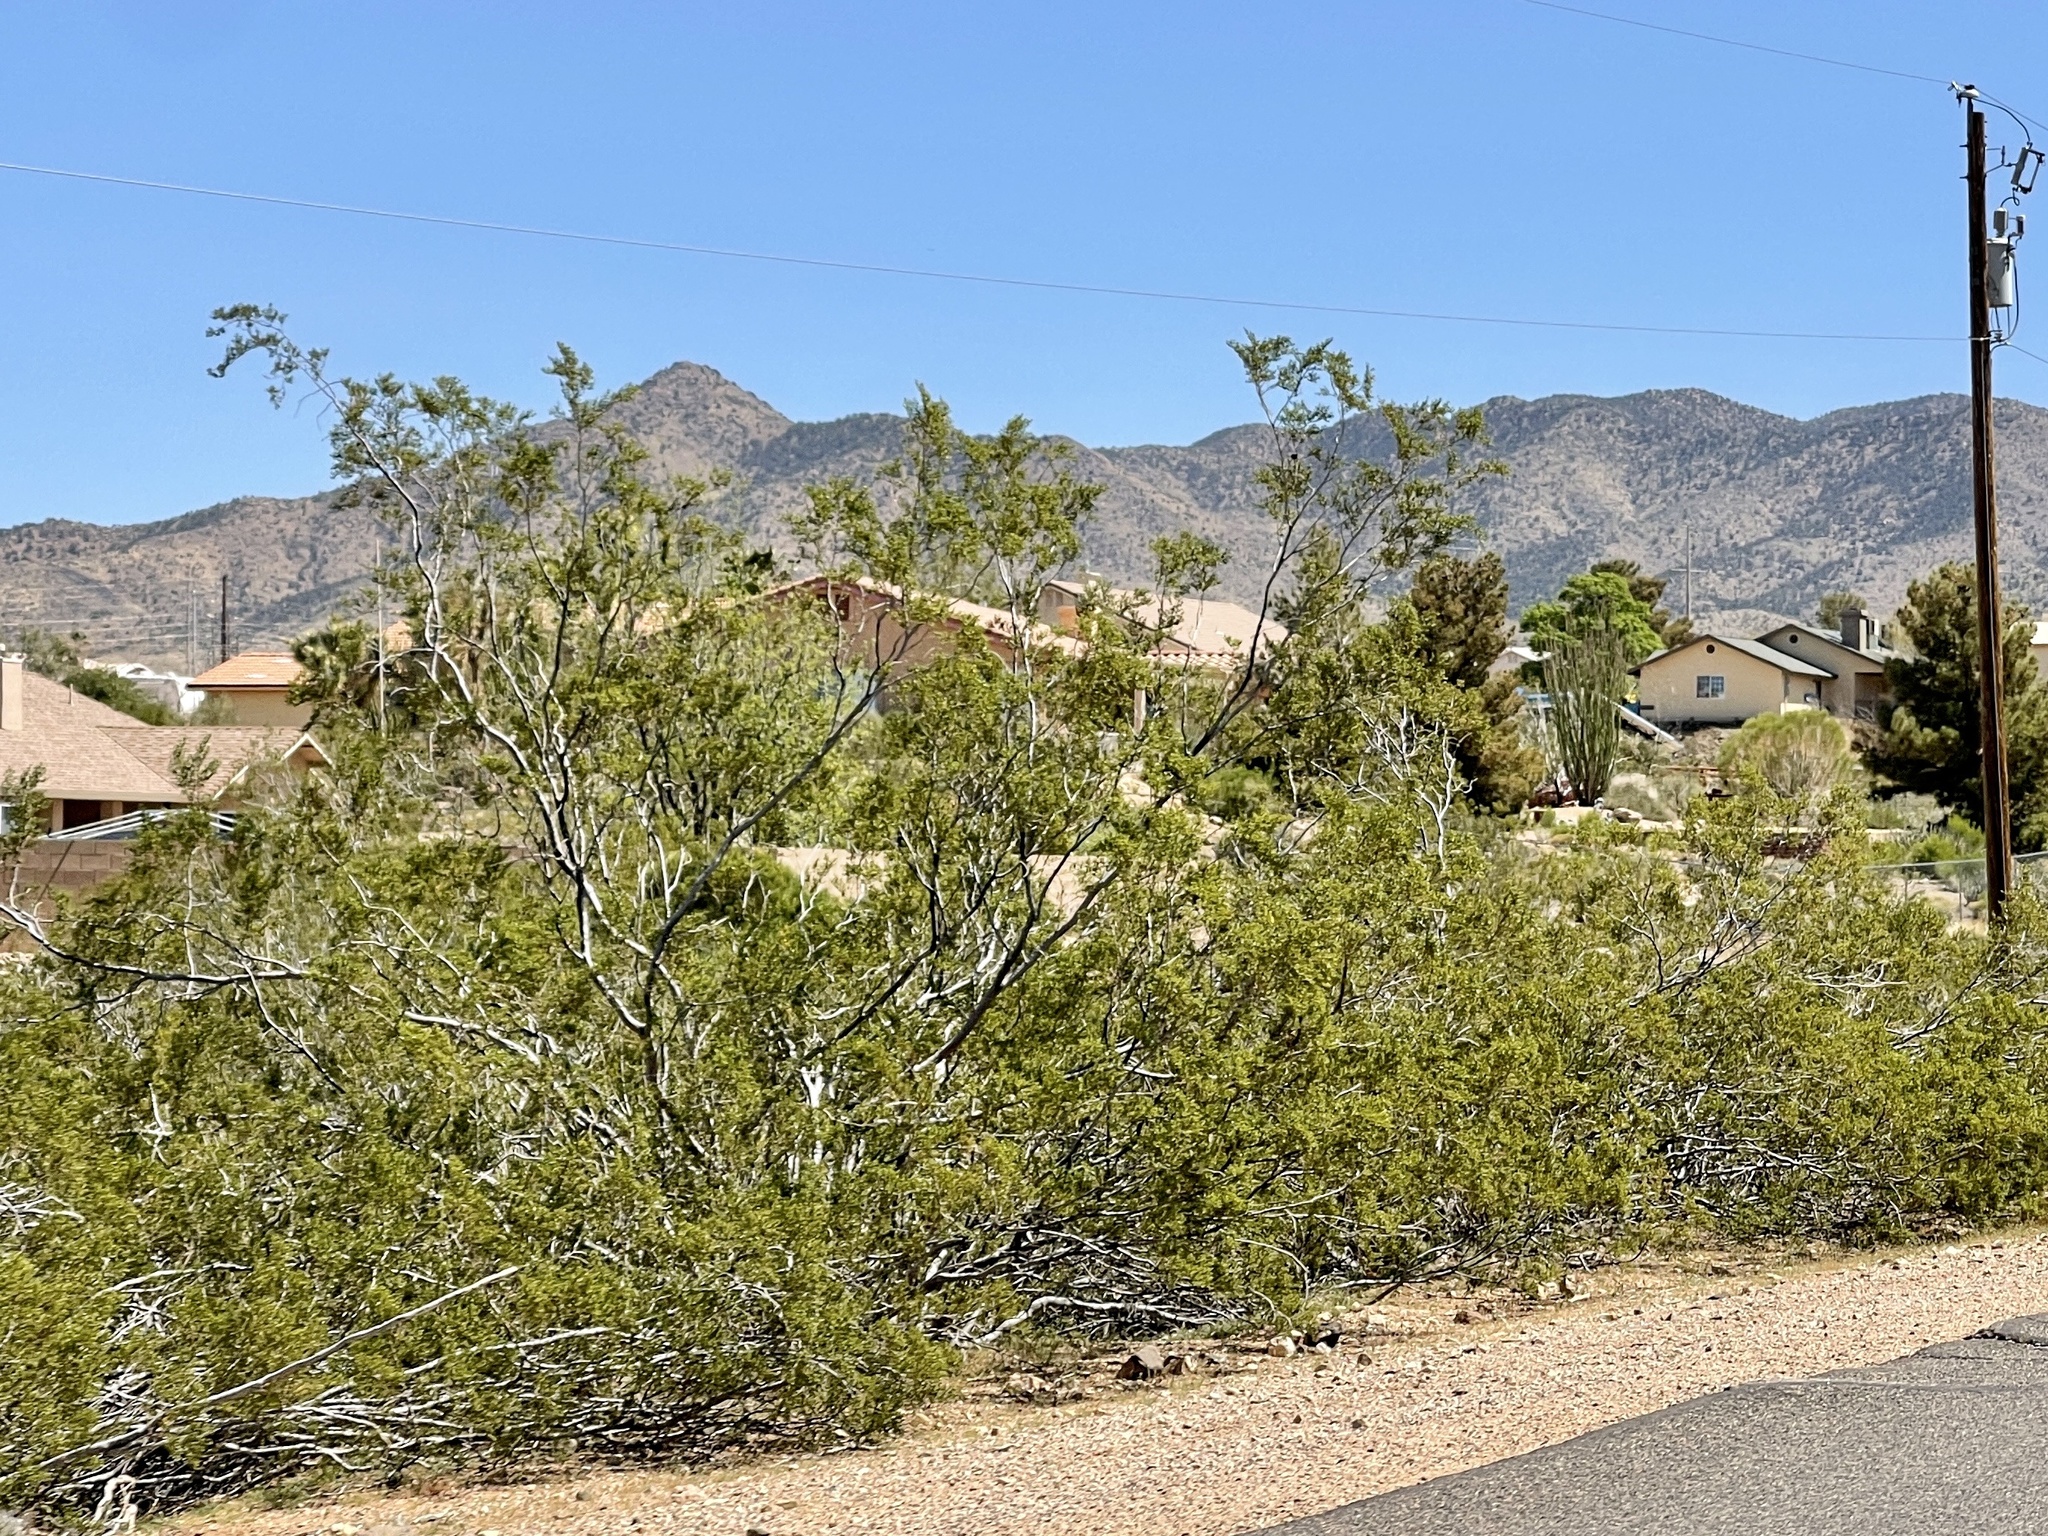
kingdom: Plantae
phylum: Tracheophyta
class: Magnoliopsida
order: Zygophyllales
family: Zygophyllaceae
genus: Larrea
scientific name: Larrea tridentata
